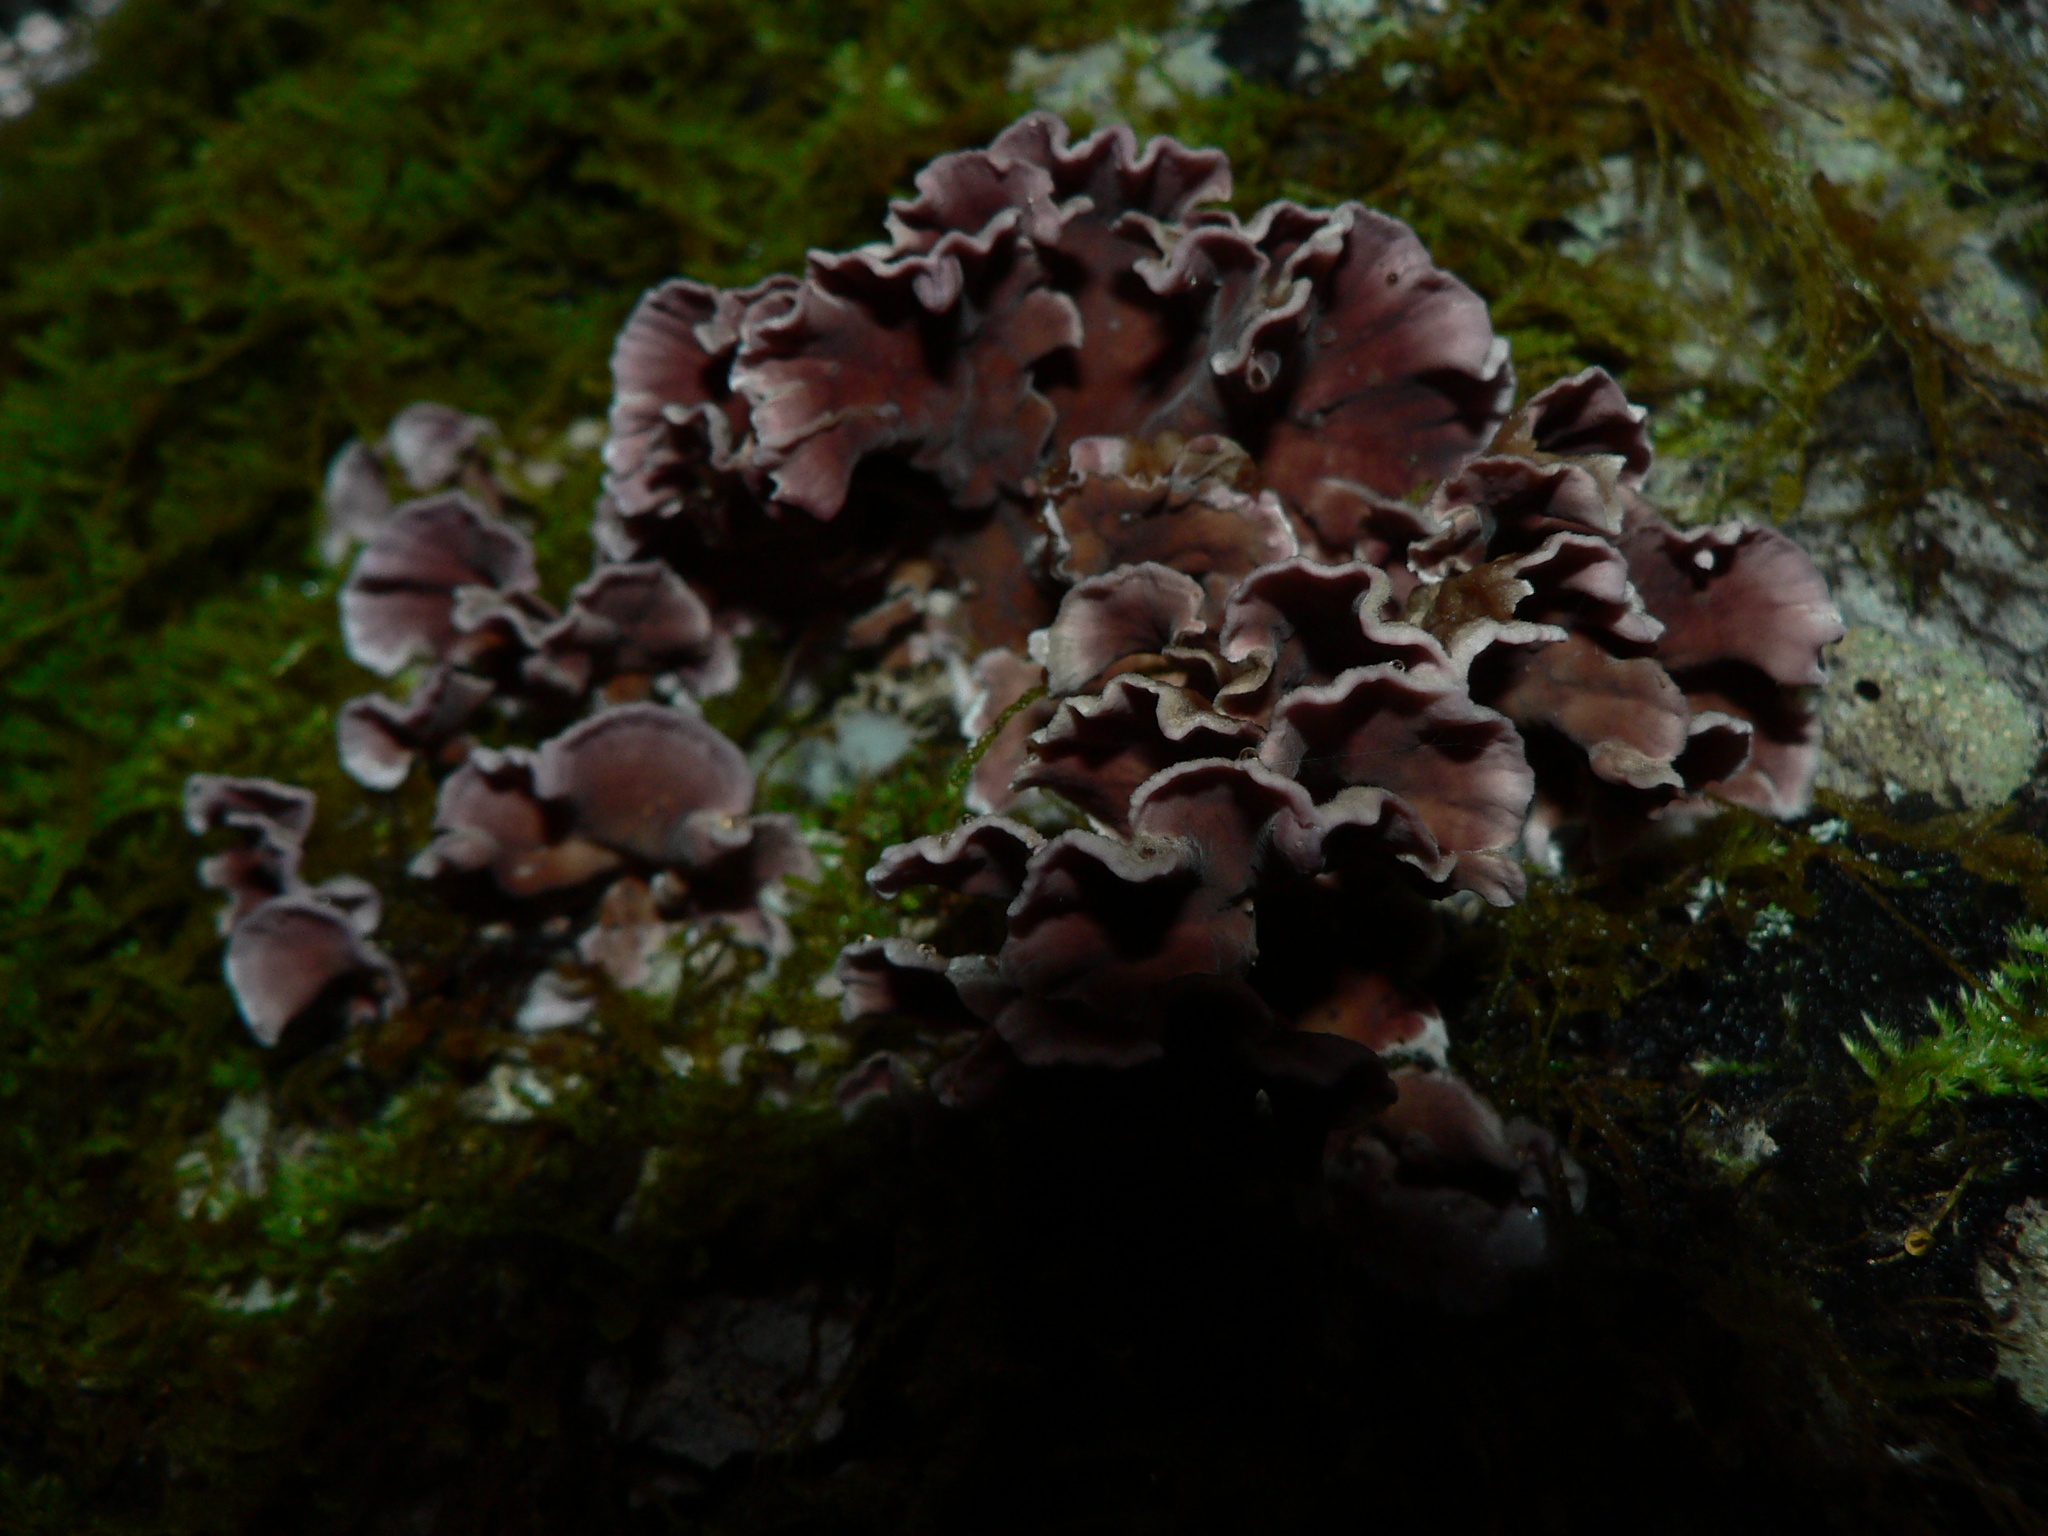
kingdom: Fungi
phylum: Basidiomycota
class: Agaricomycetes
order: Agaricales
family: Cyphellaceae
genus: Chondrostereum
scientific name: Chondrostereum purpureum
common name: Silver leaf disease
